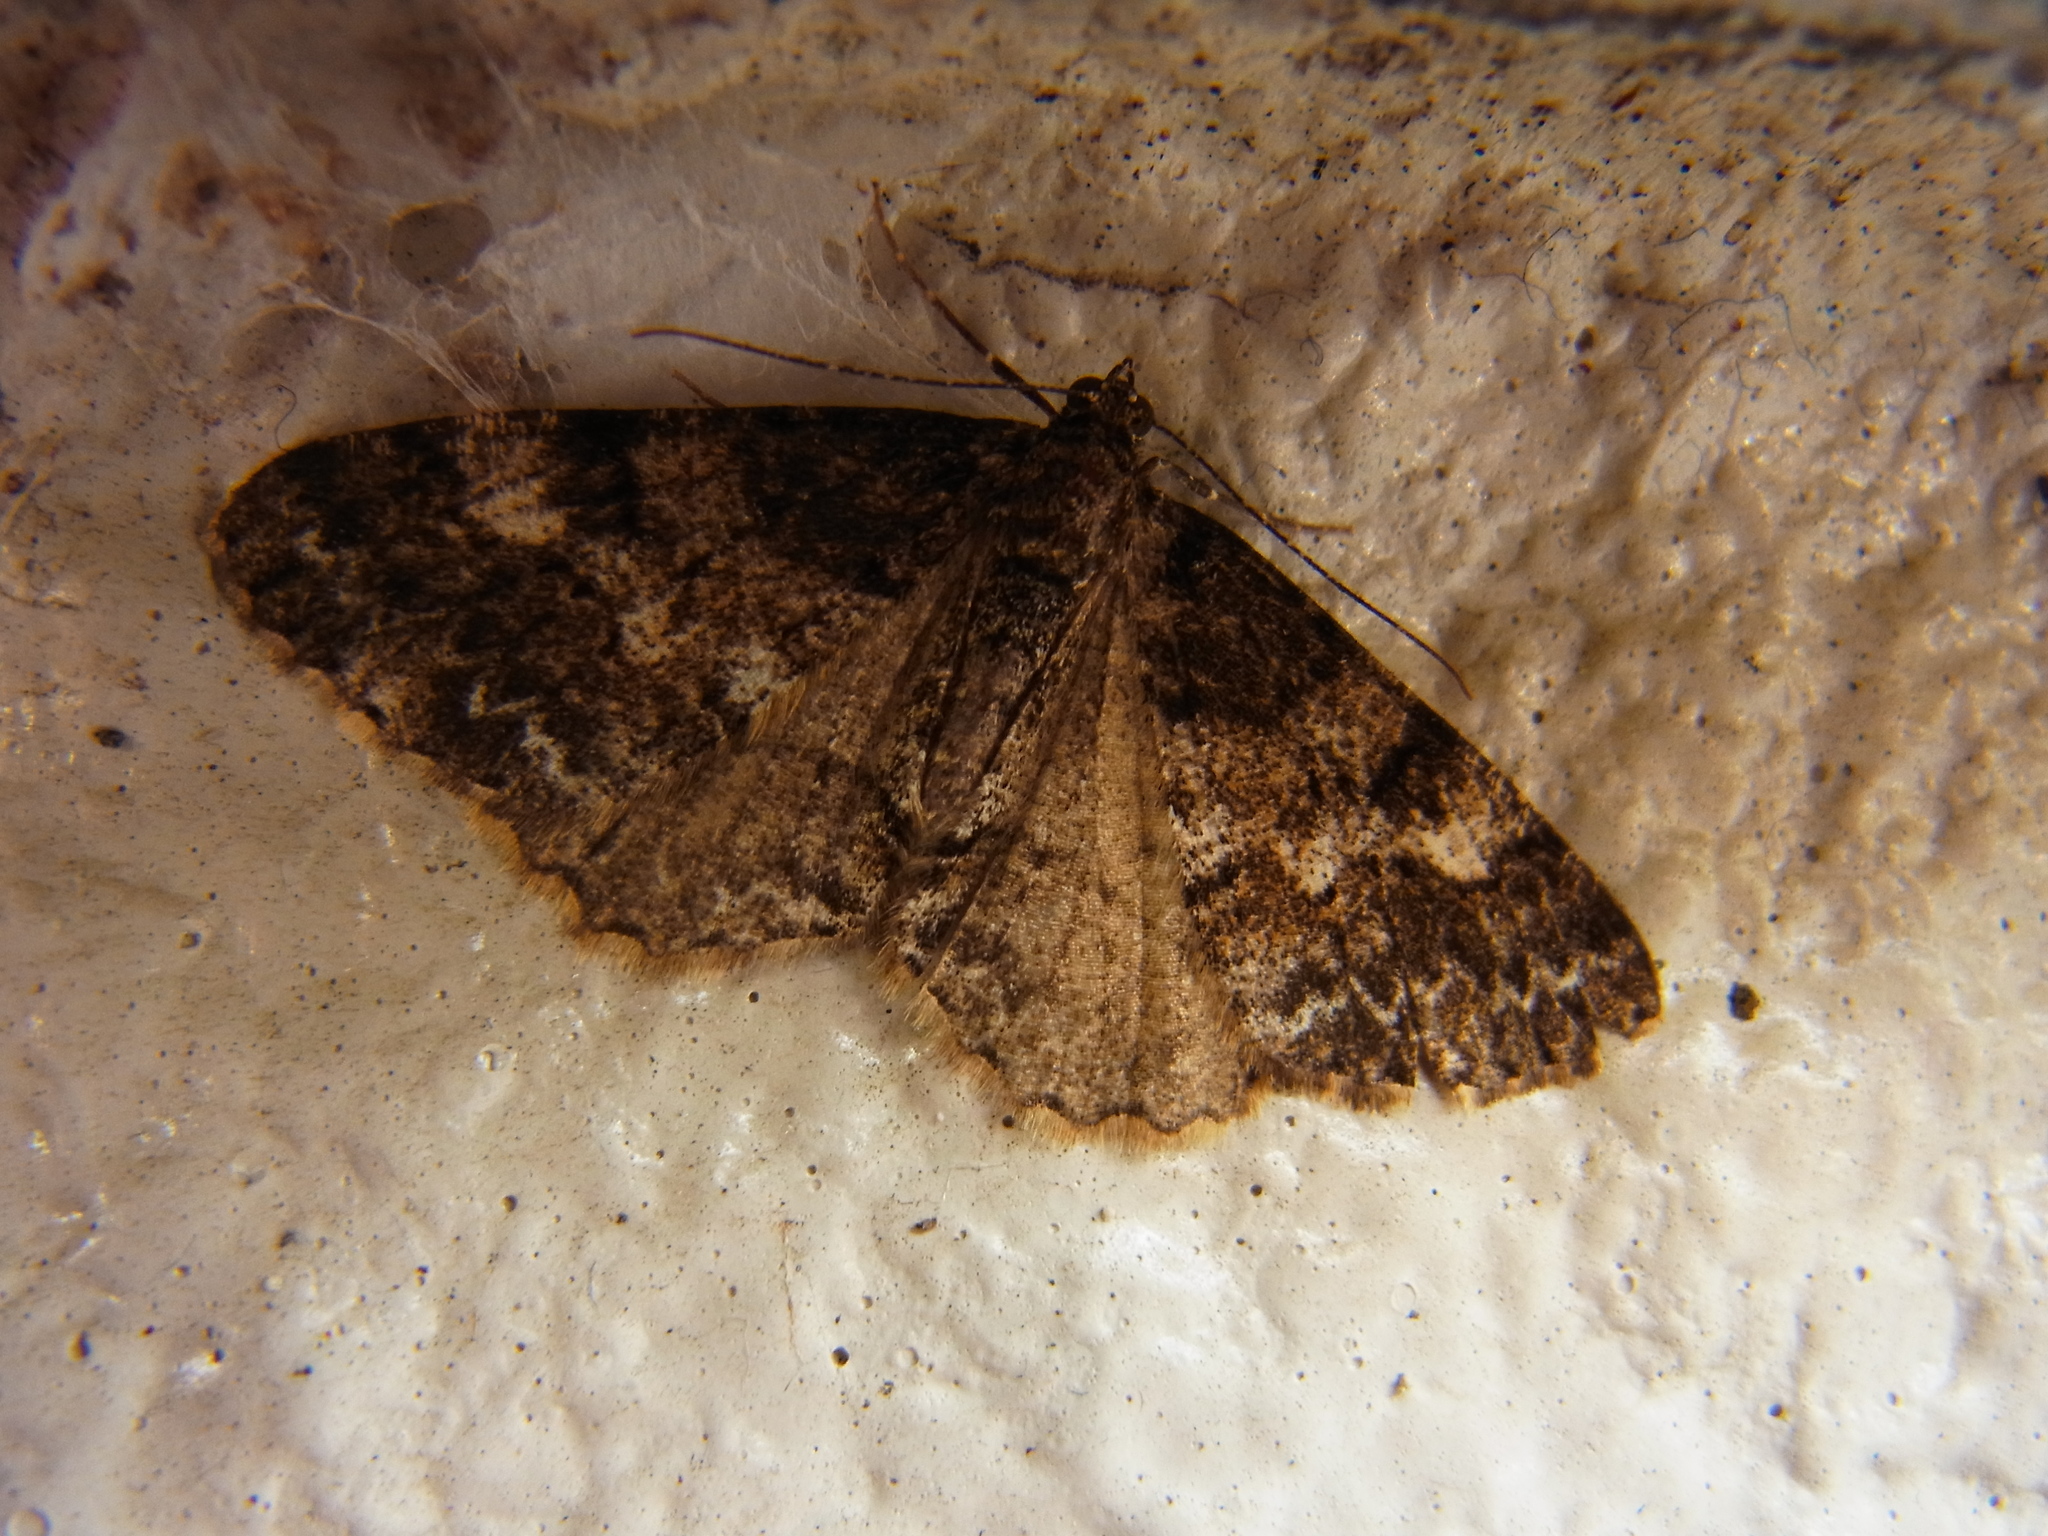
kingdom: Animalia
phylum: Arthropoda
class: Insecta
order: Lepidoptera
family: Geometridae
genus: Alcis
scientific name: Alcis angulifera
